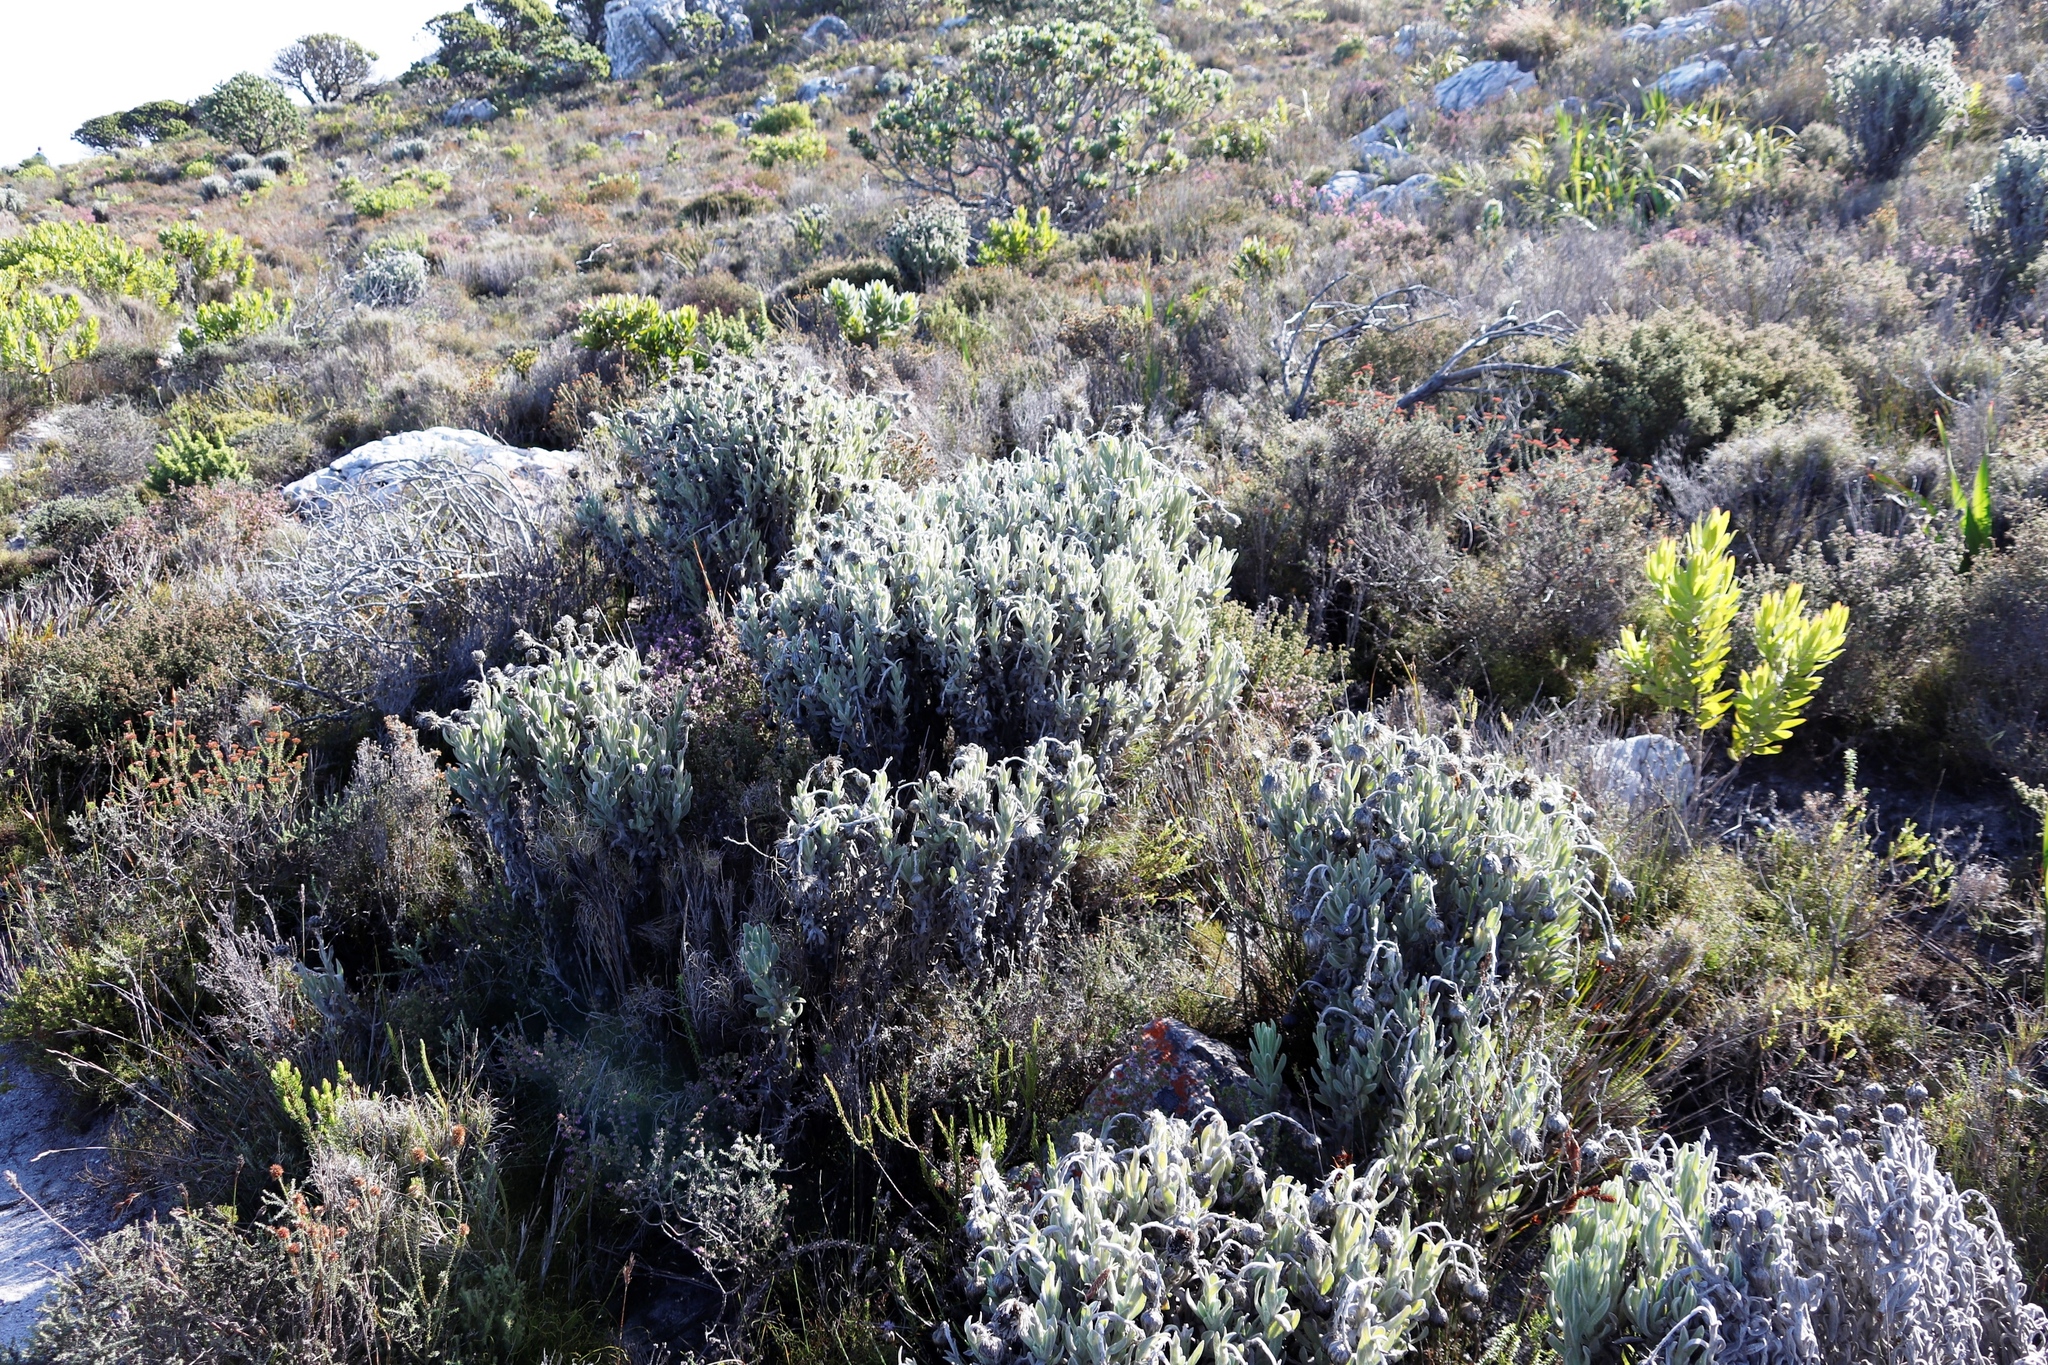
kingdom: Plantae
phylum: Tracheophyta
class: Magnoliopsida
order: Asterales
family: Asteraceae
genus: Syncarpha
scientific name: Syncarpha vestita
